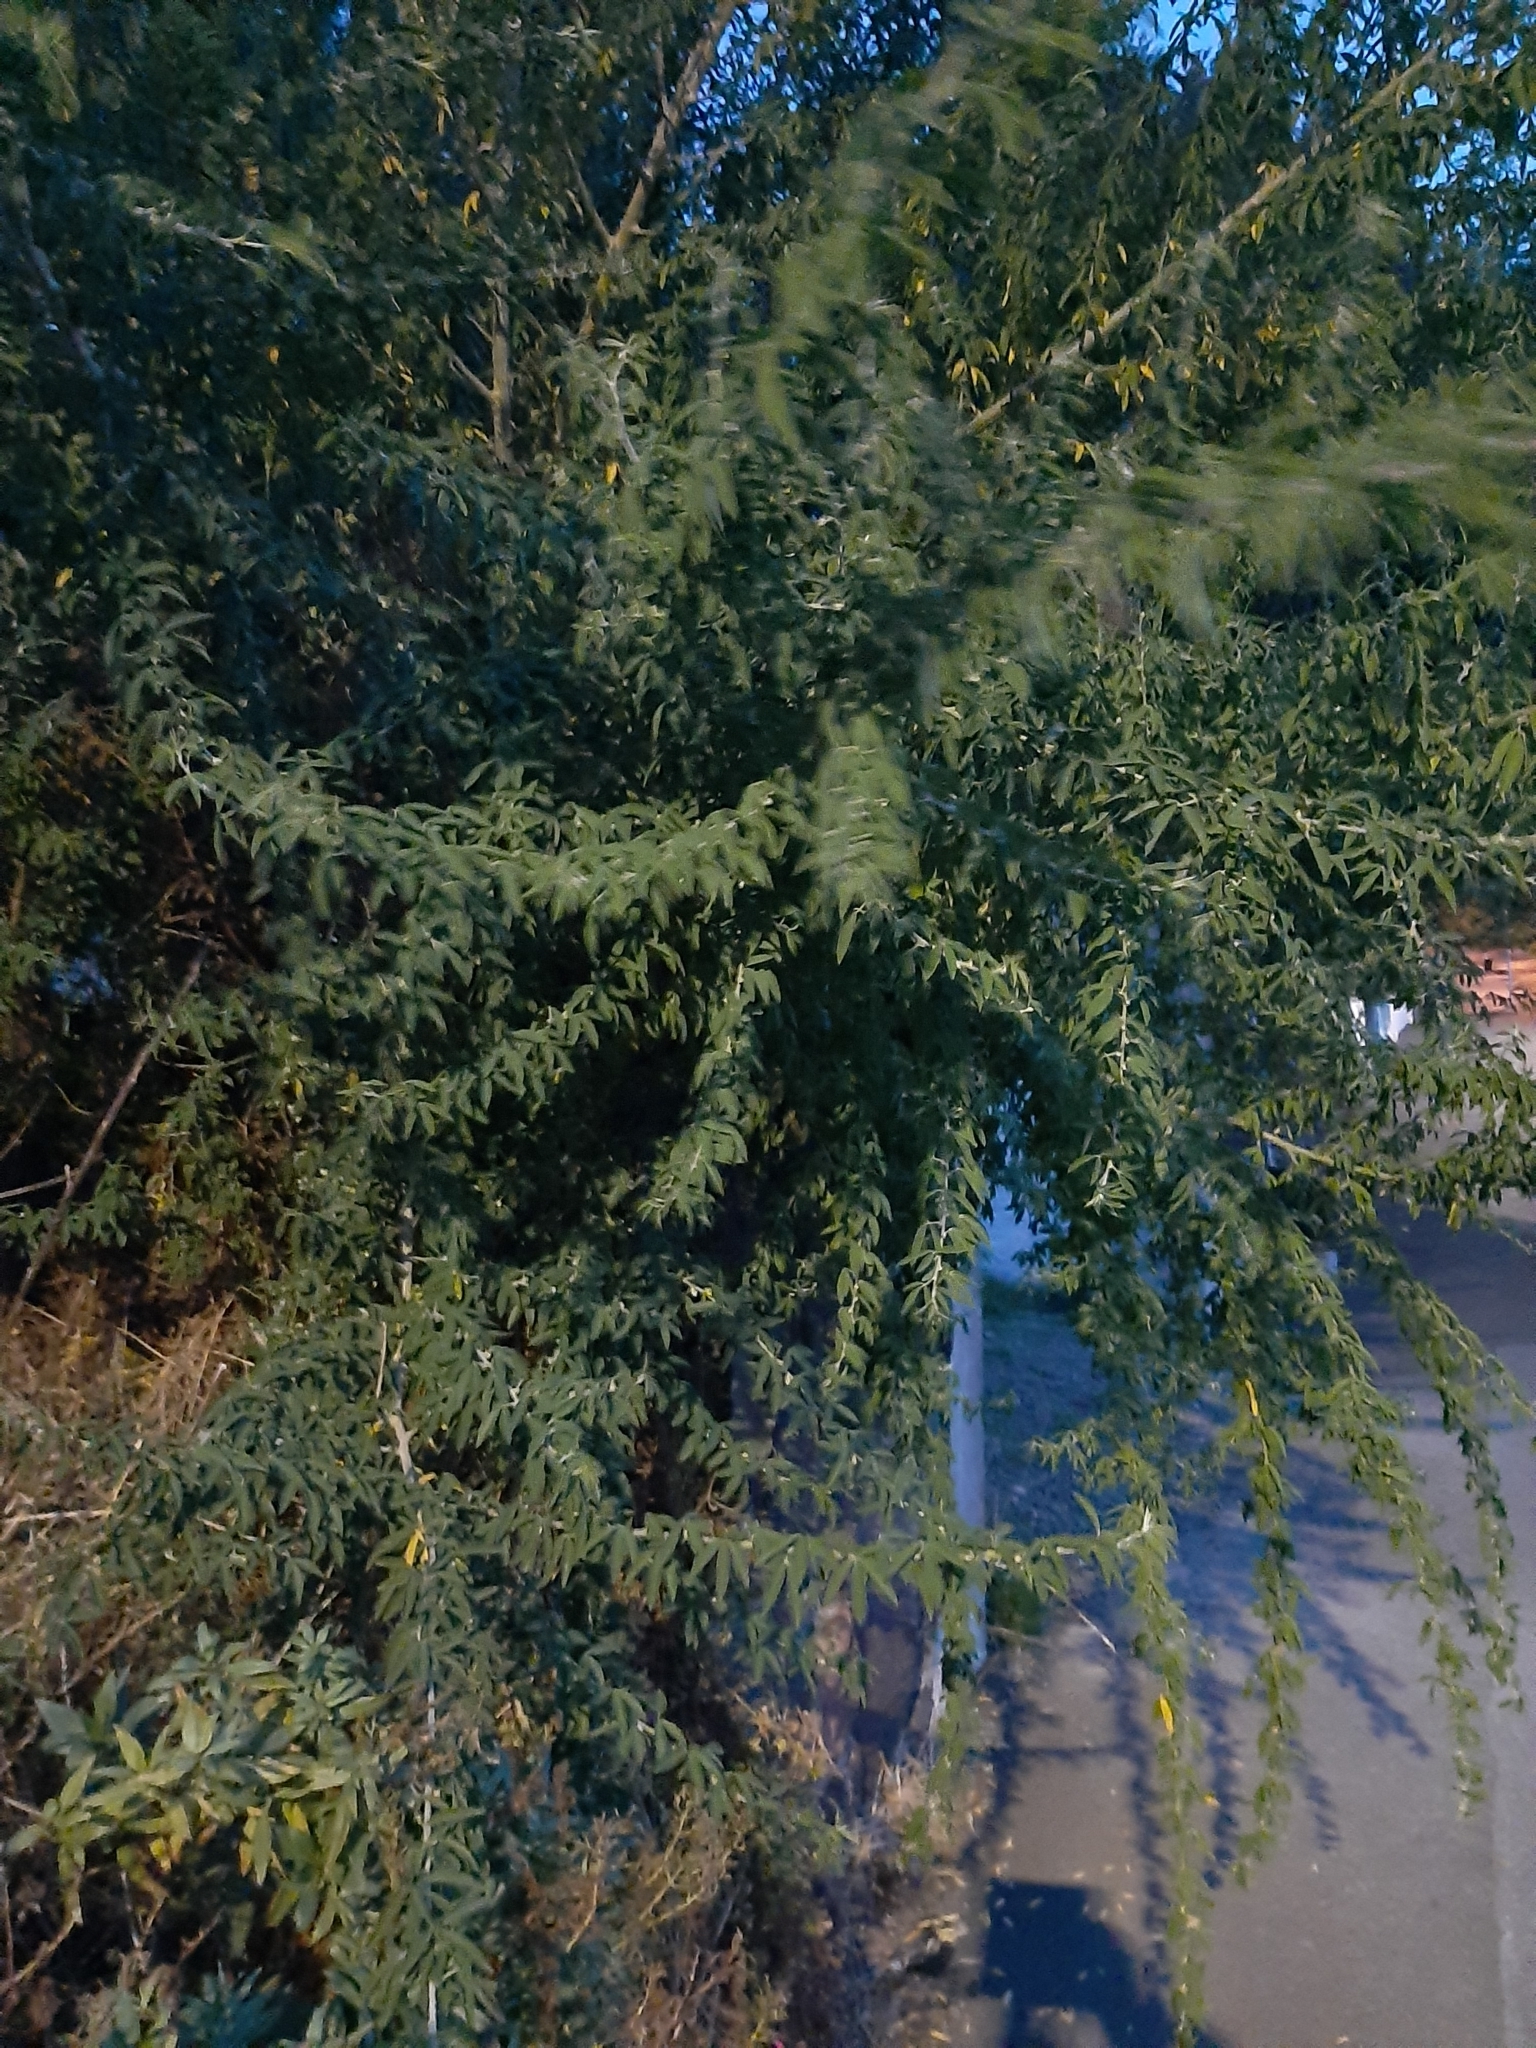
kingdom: Plantae
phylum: Tracheophyta
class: Magnoliopsida
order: Fabales
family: Fabaceae
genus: Chamaecytisus
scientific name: Chamaecytisus prolifer
